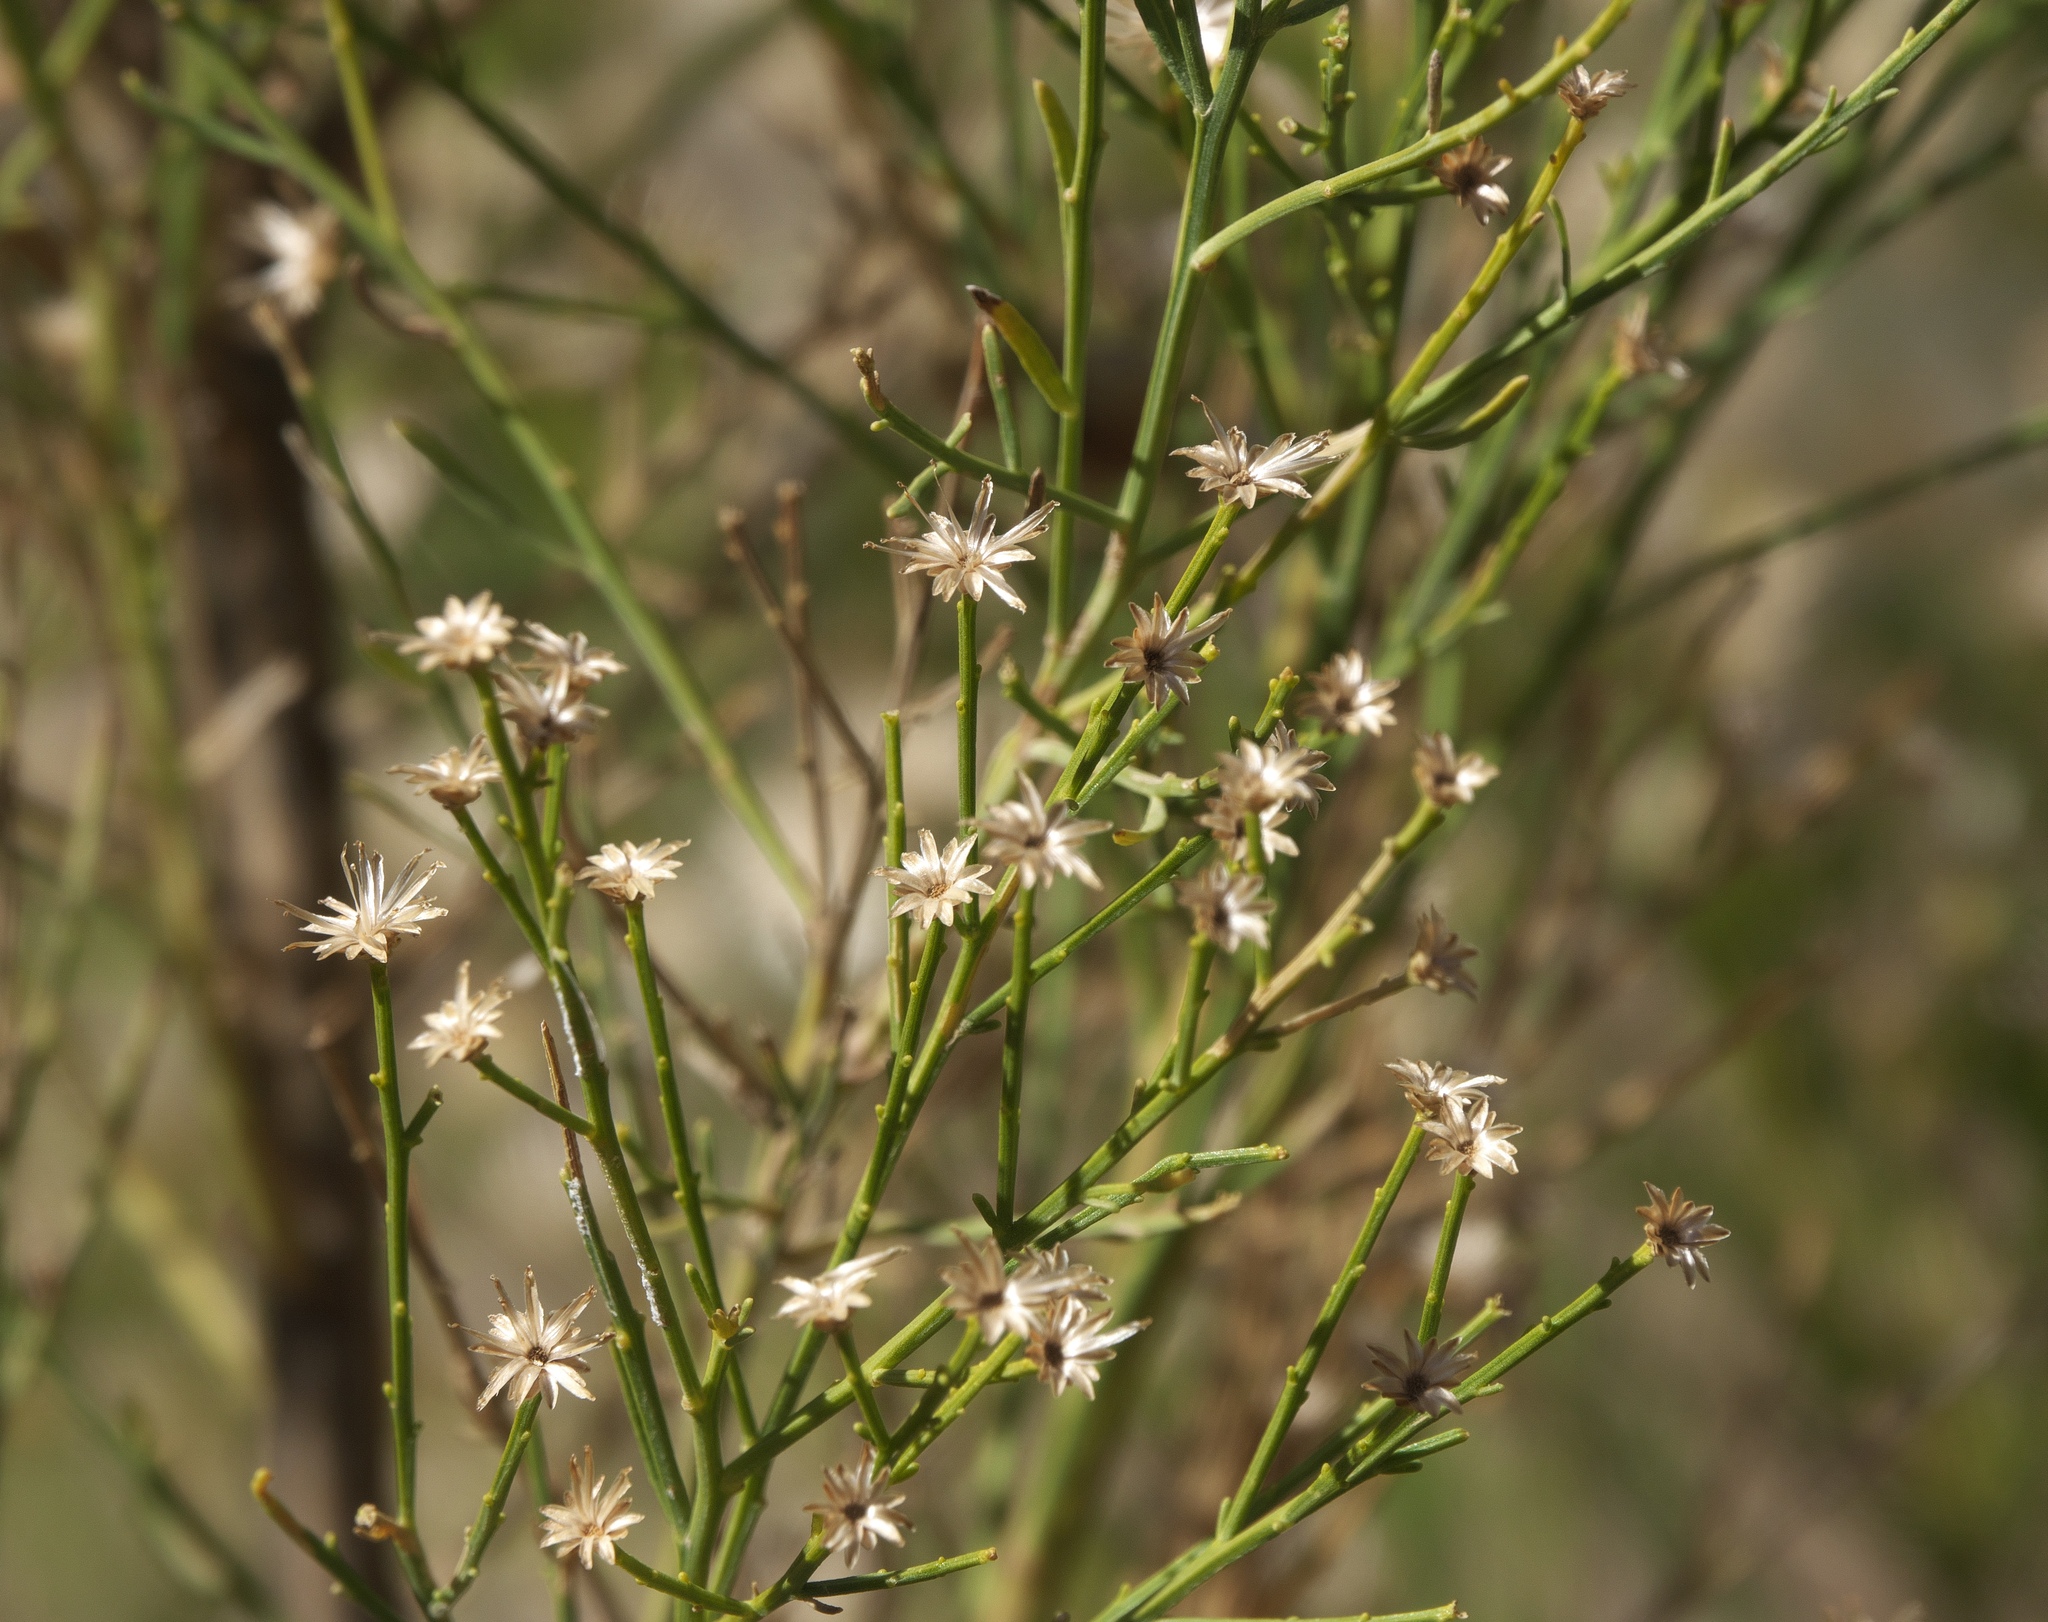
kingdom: Plantae
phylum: Tracheophyta
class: Magnoliopsida
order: Asterales
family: Asteraceae
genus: Baccharis
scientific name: Baccharis sarothroides
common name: Desert-broom
